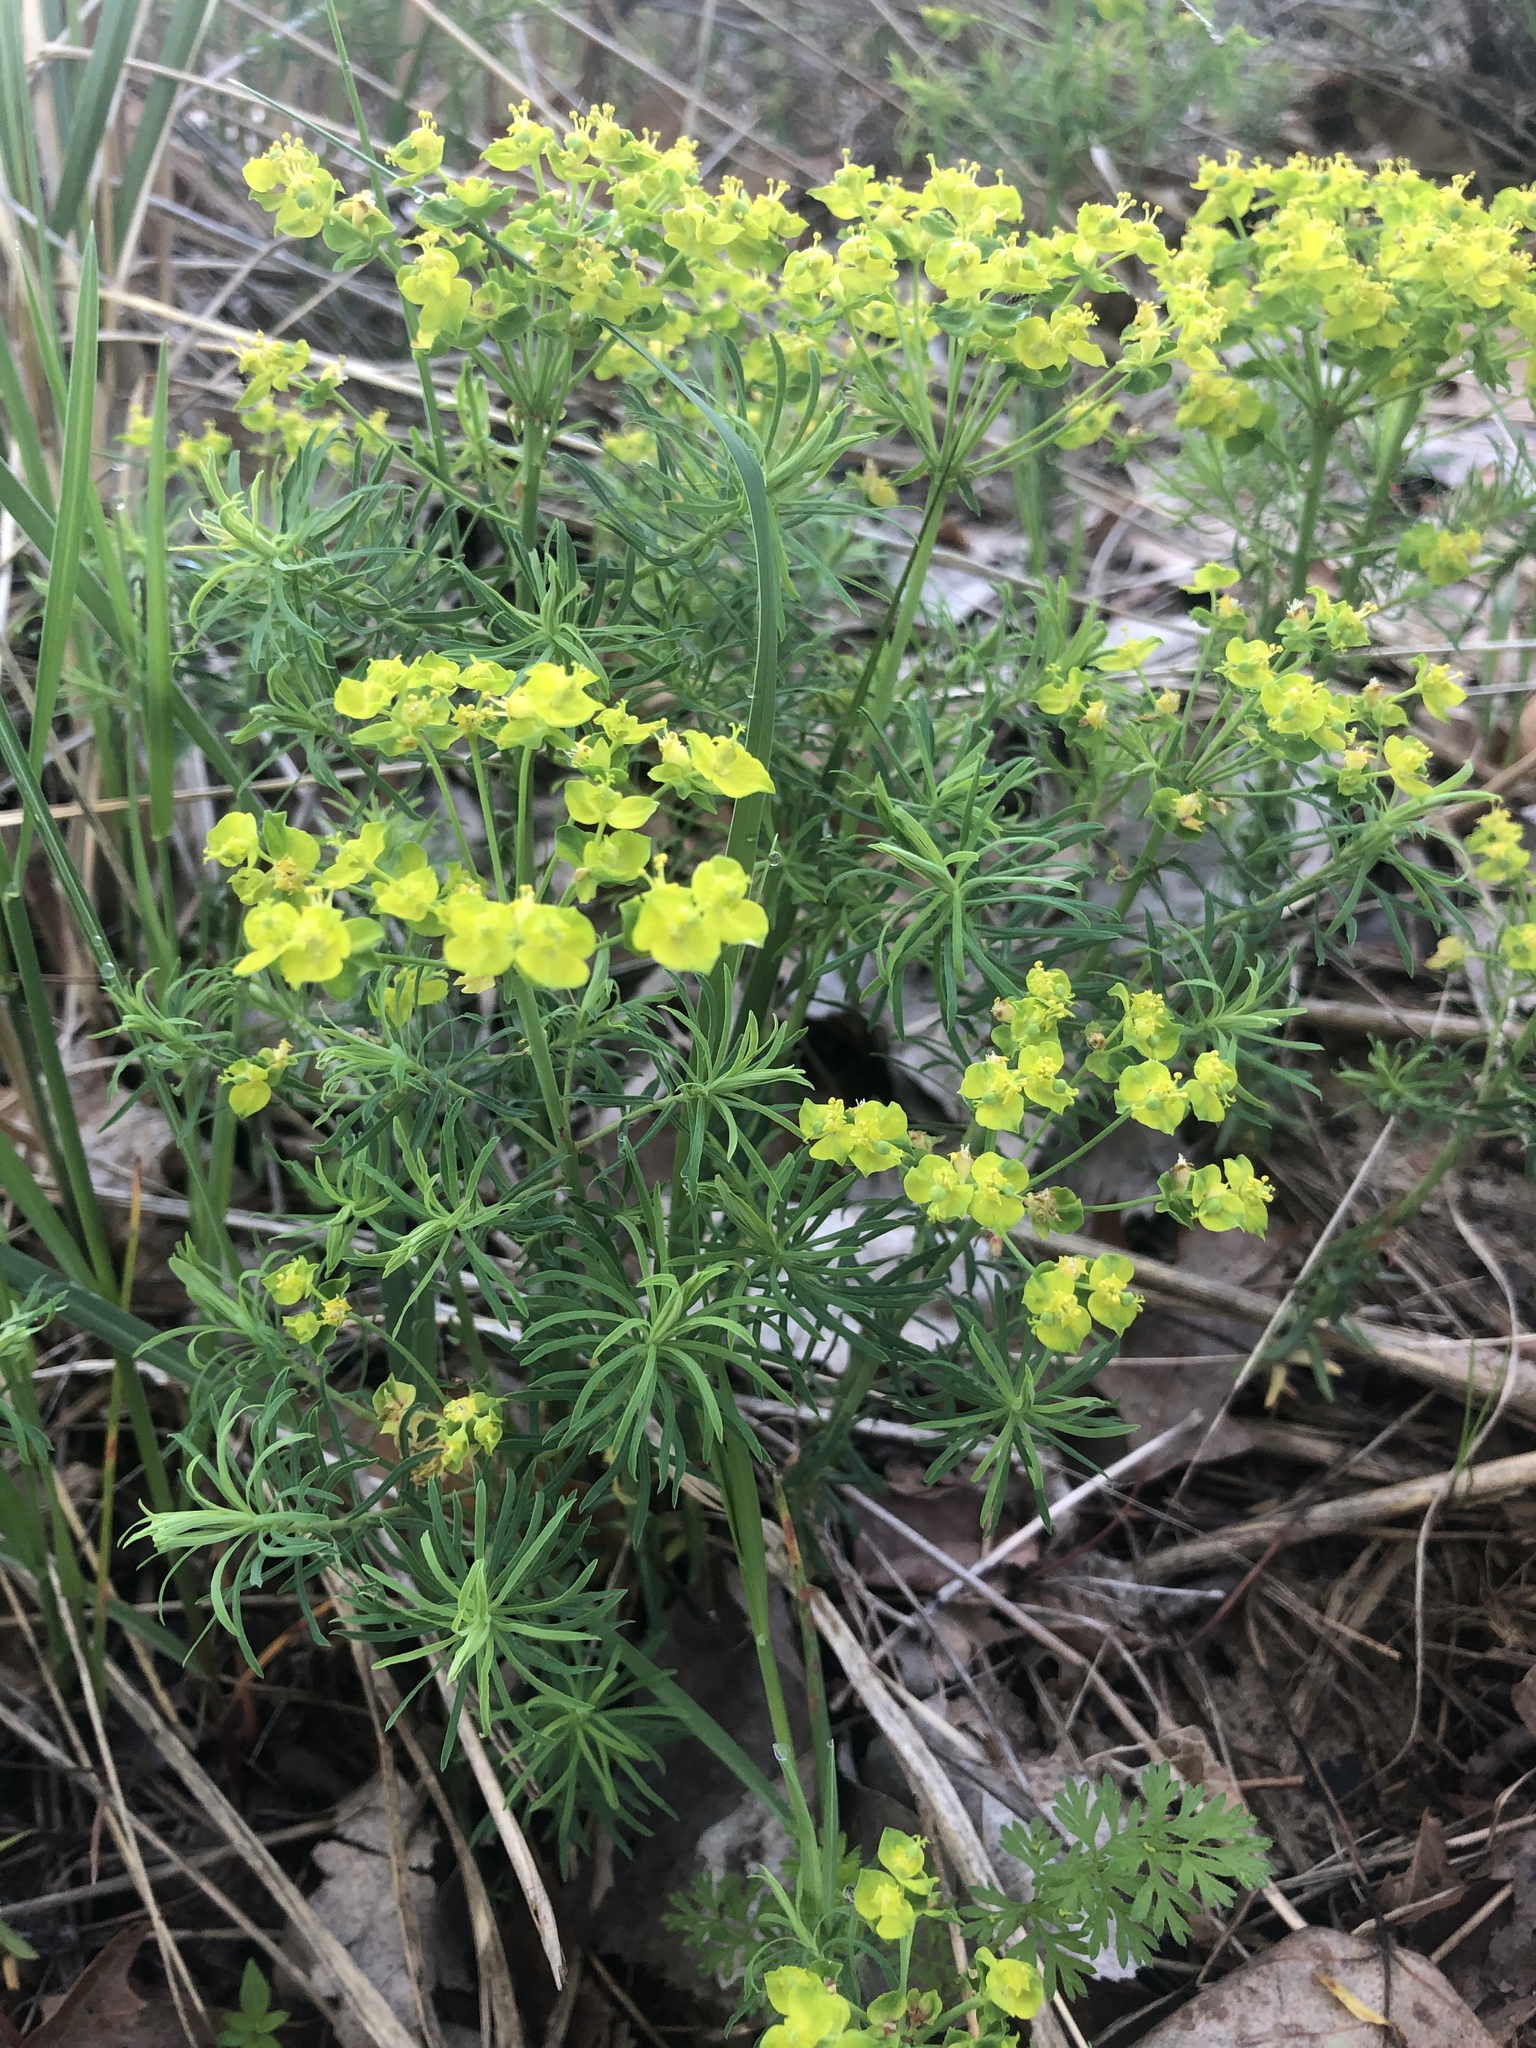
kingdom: Plantae
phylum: Tracheophyta
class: Magnoliopsida
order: Malpighiales
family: Euphorbiaceae
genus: Euphorbia
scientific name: Euphorbia cyparissias
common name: Cypress spurge
